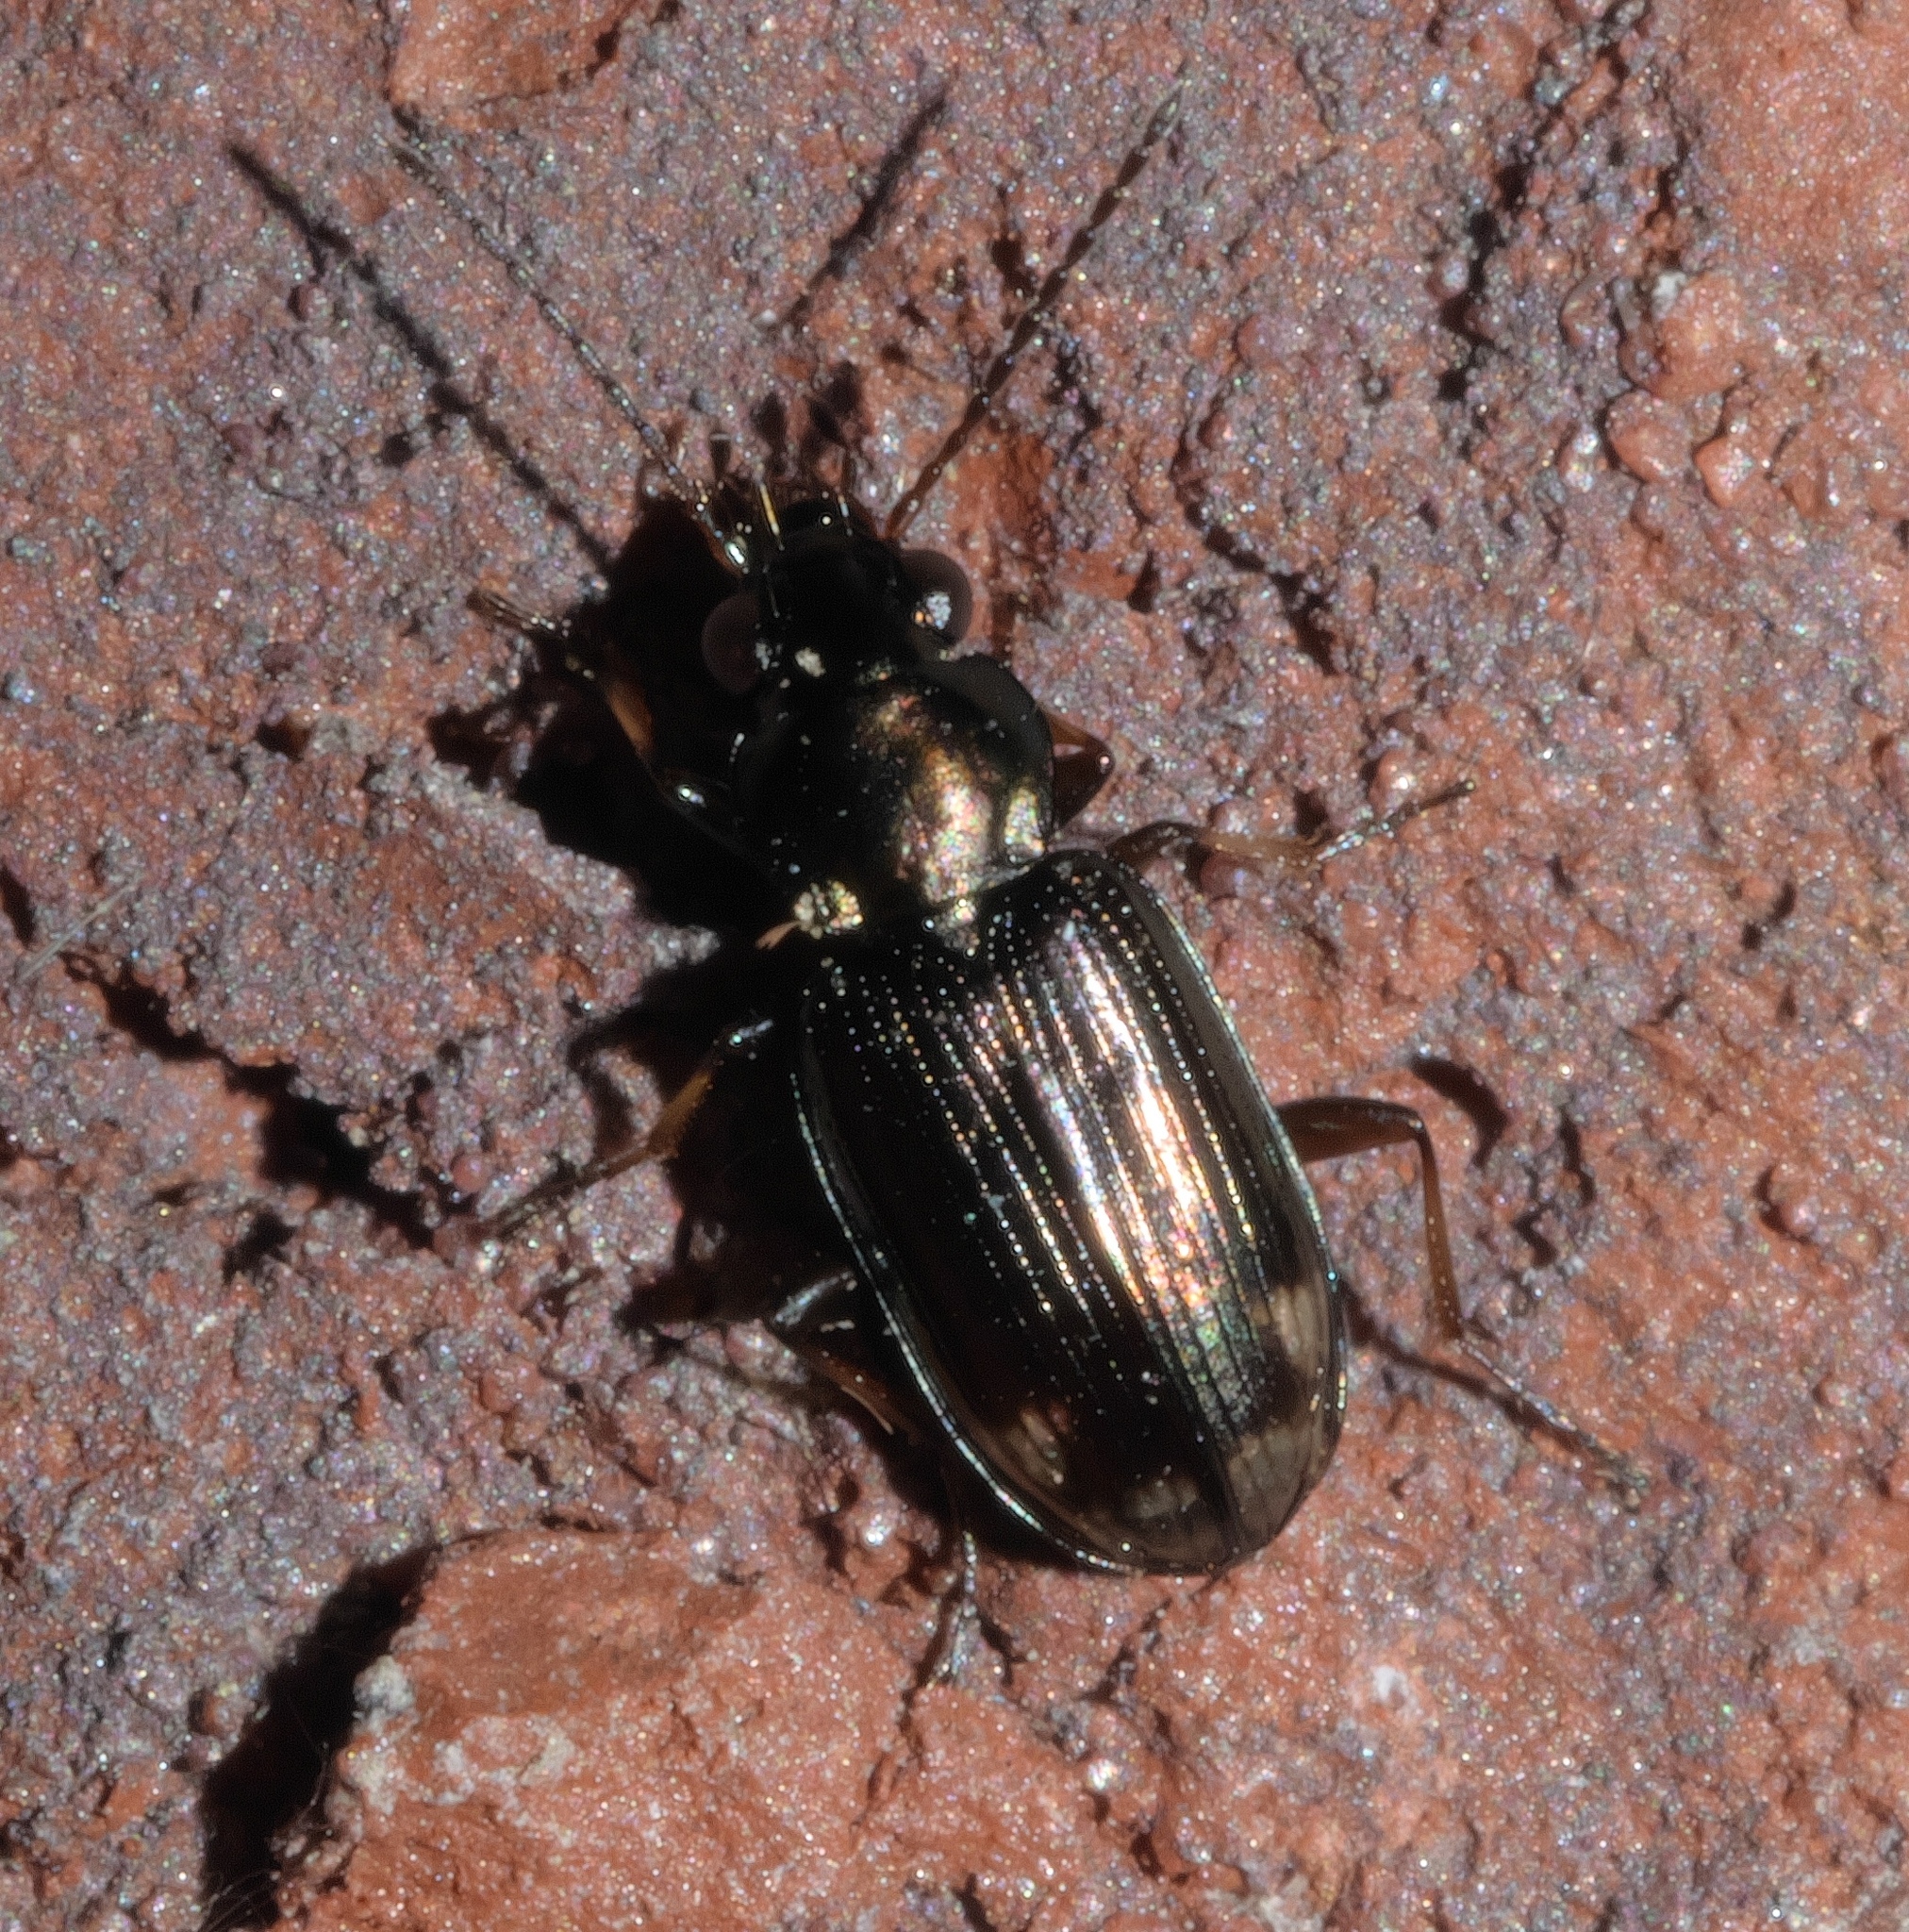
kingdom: Animalia
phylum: Arthropoda
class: Insecta
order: Coleoptera
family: Carabidae
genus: Bembidion
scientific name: Bembidion rapidum
